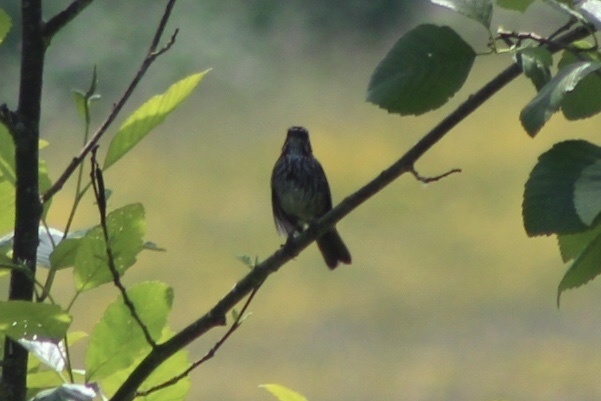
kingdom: Animalia
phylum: Chordata
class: Aves
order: Passeriformes
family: Passerellidae
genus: Melospiza
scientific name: Melospiza melodia
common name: Song sparrow
